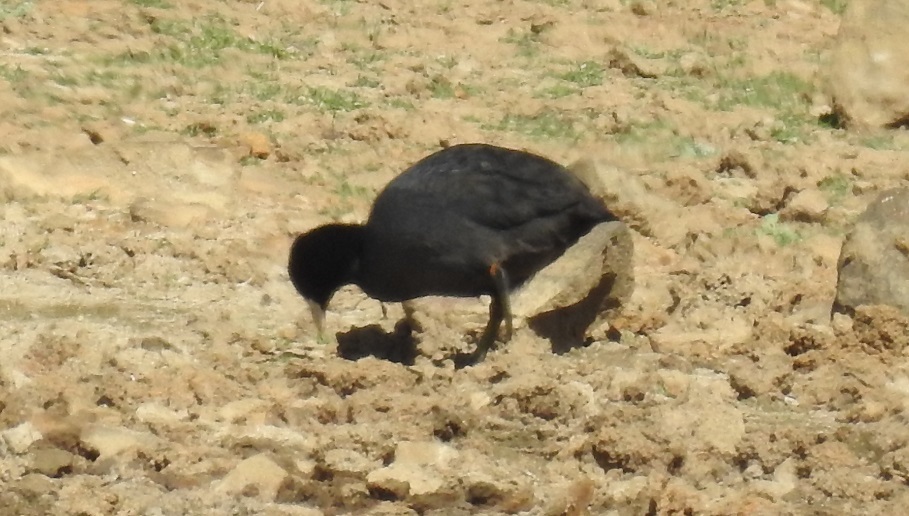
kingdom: Animalia
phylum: Chordata
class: Aves
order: Gruiformes
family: Rallidae
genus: Fulica
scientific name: Fulica atra
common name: Eurasian coot
